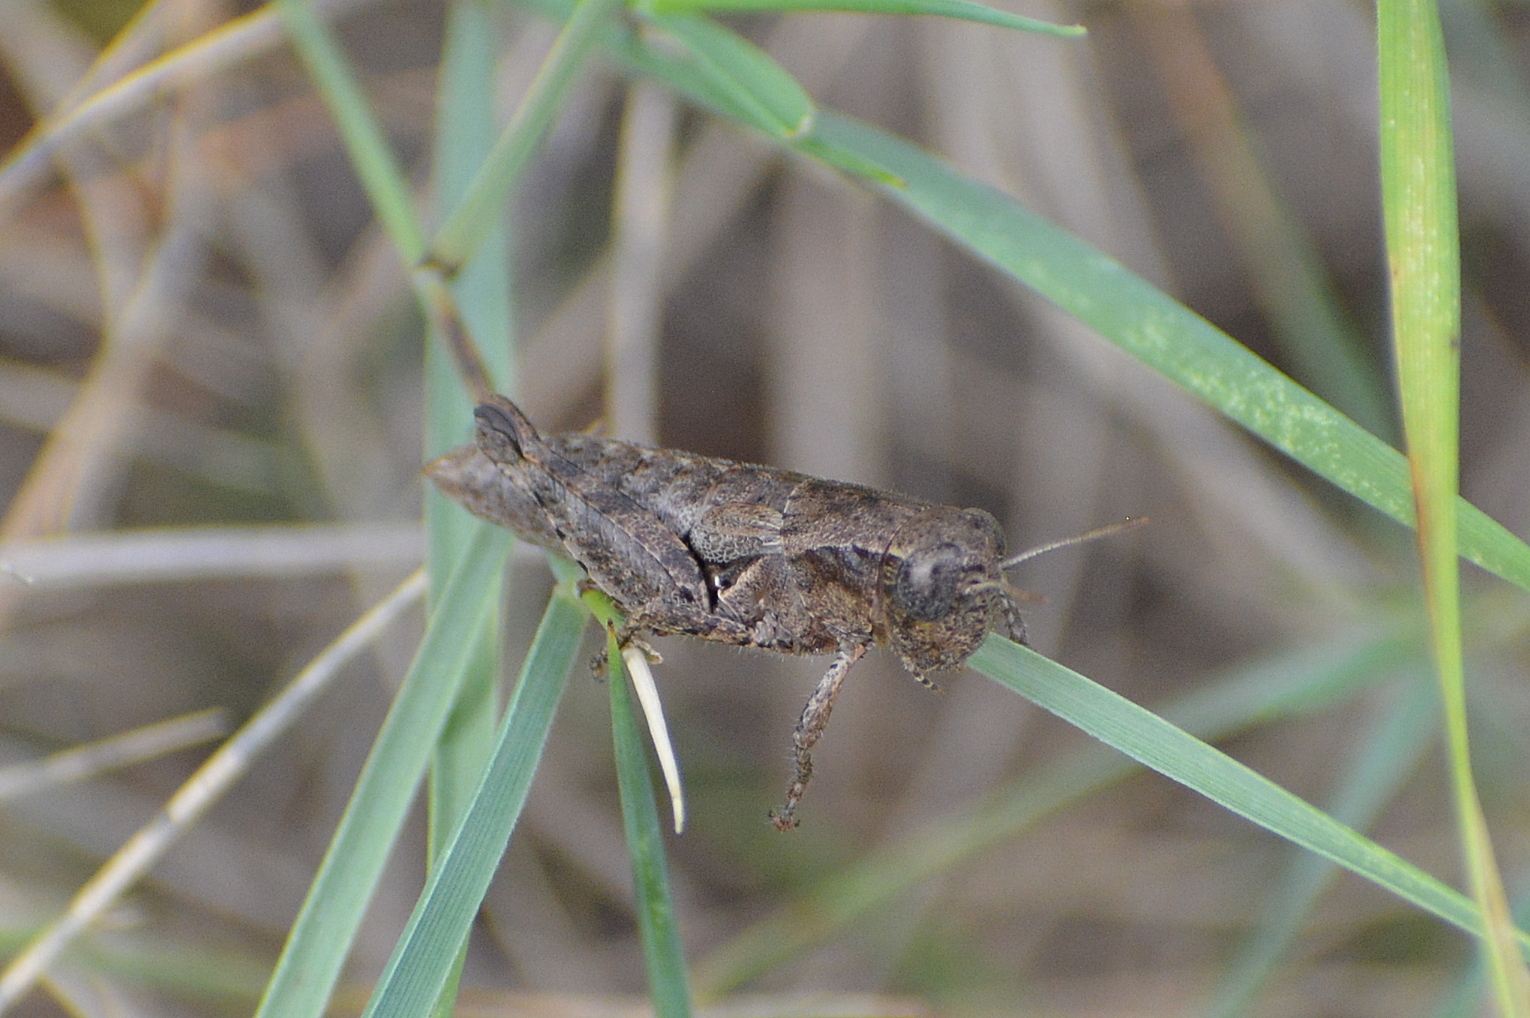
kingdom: Animalia
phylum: Arthropoda
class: Insecta
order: Orthoptera
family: Acrididae
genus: Pezotettix
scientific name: Pezotettix giornae
